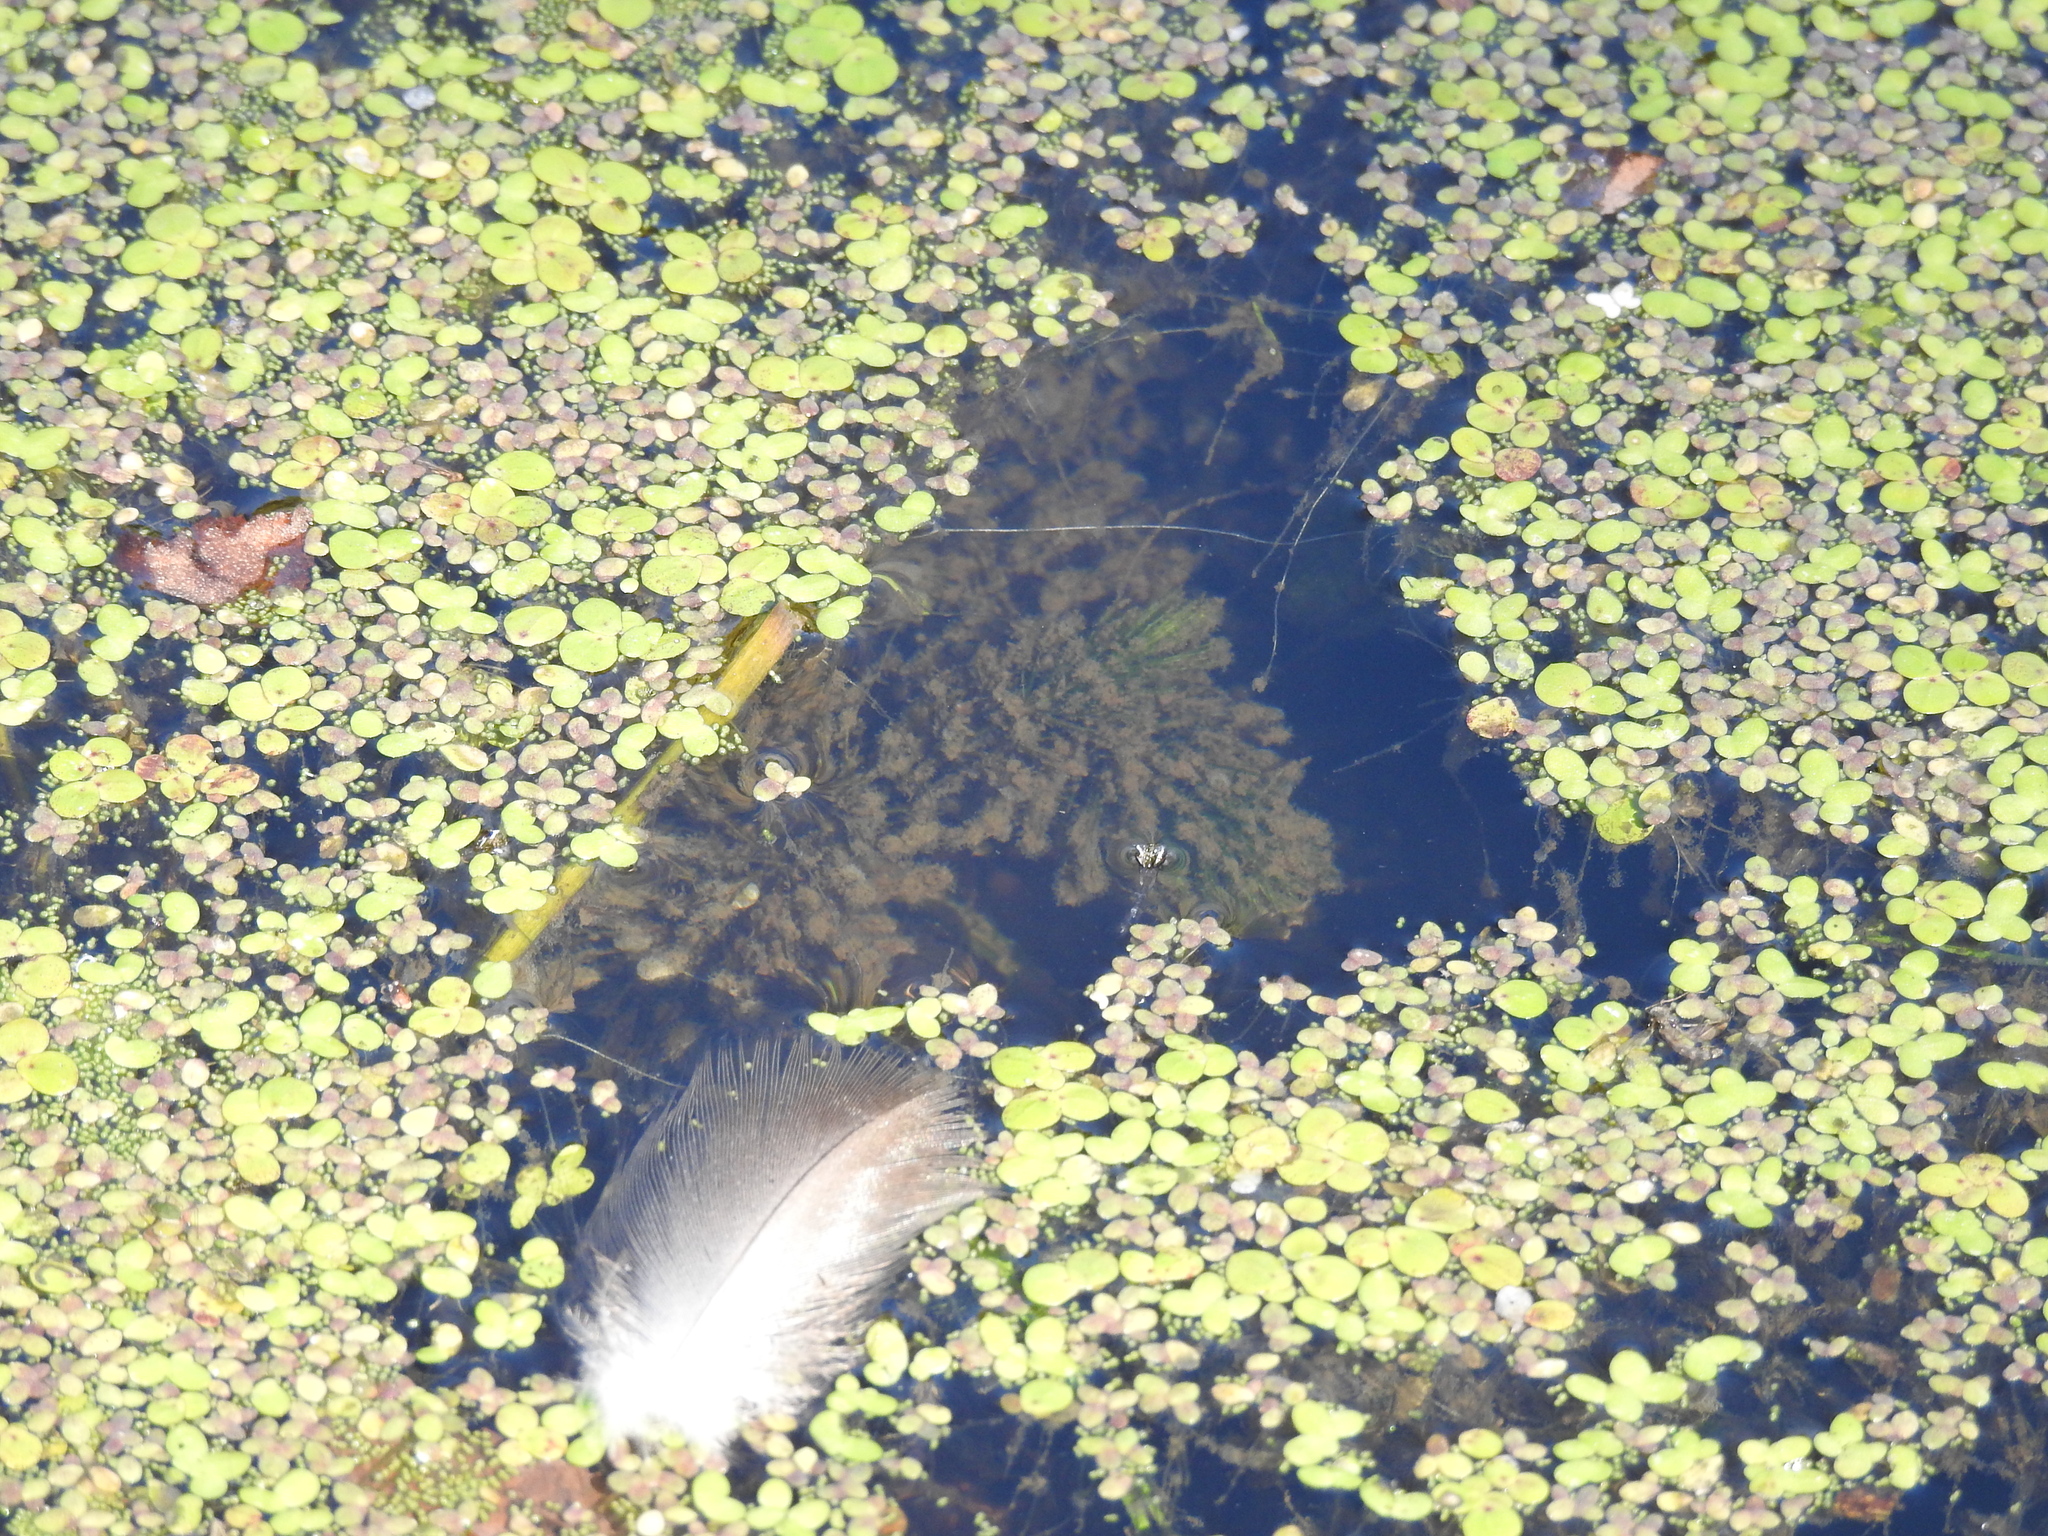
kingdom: Plantae
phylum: Tracheophyta
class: Magnoliopsida
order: Ceratophyllales
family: Ceratophyllaceae
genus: Ceratophyllum
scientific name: Ceratophyllum demersum
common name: Rigid hornwort
